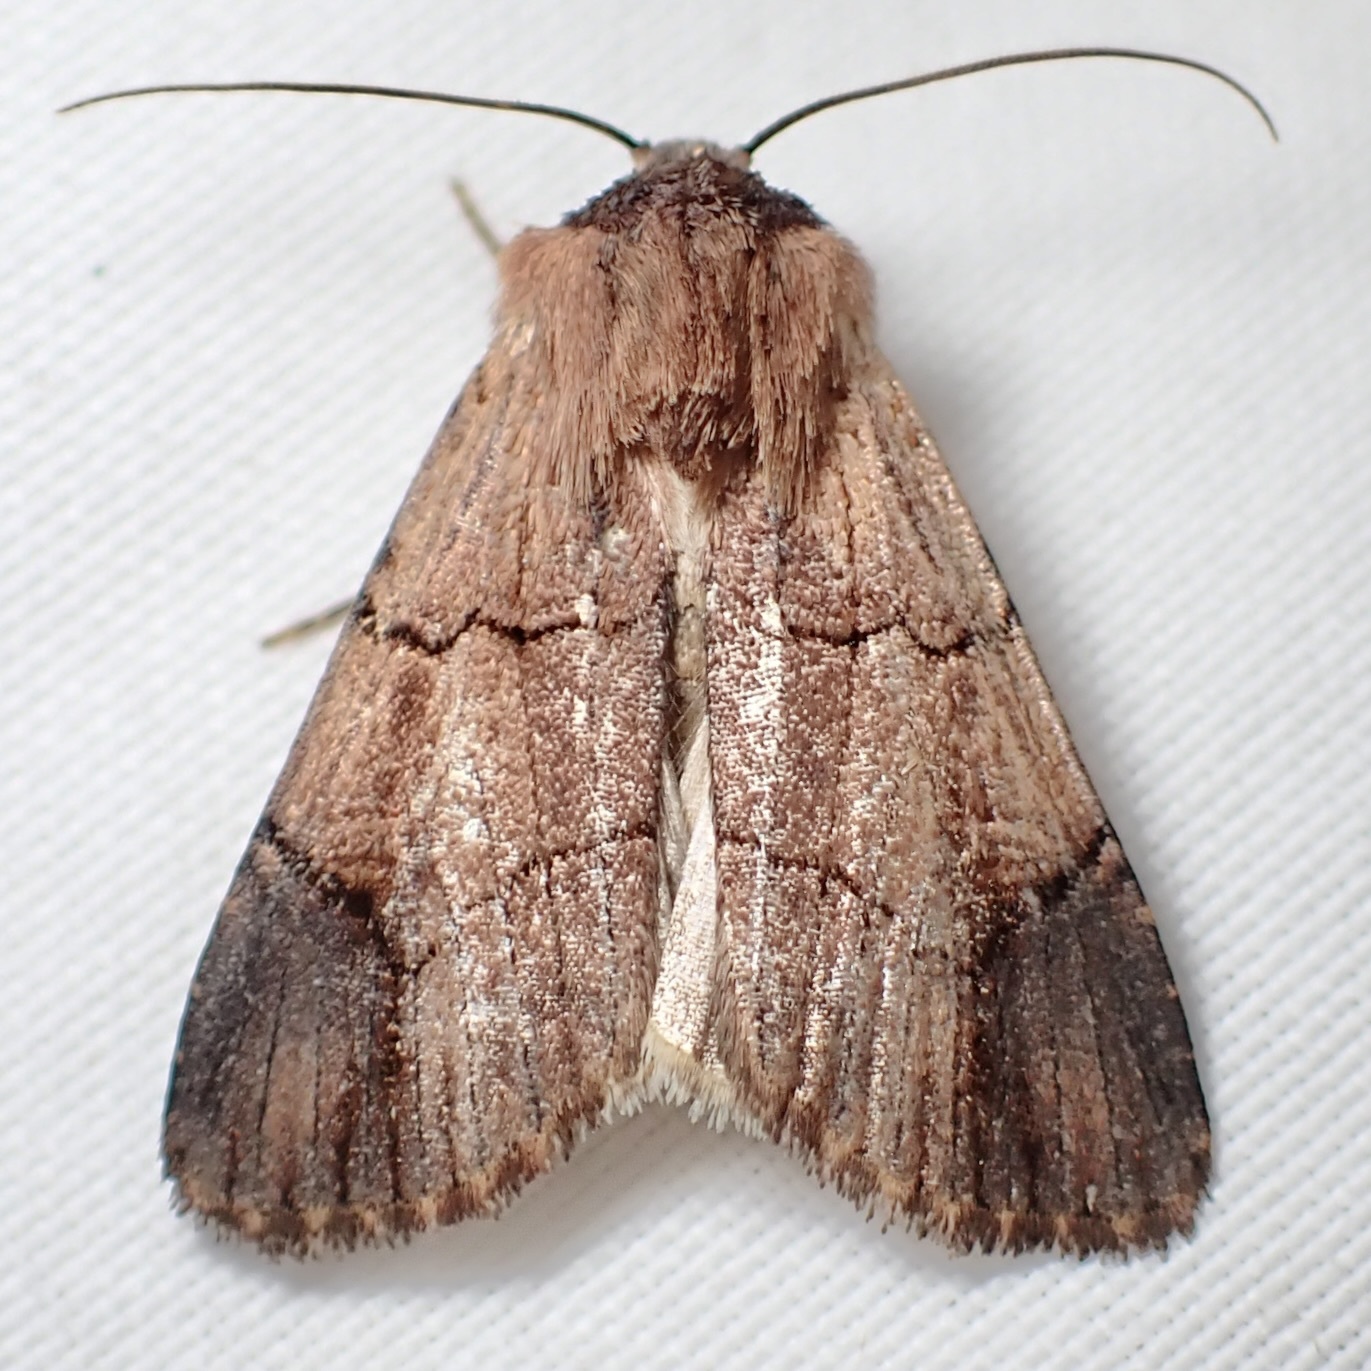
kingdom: Animalia
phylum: Arthropoda
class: Insecta
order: Lepidoptera
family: Noctuidae
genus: Dichagyris
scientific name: Dichagyris grotei
